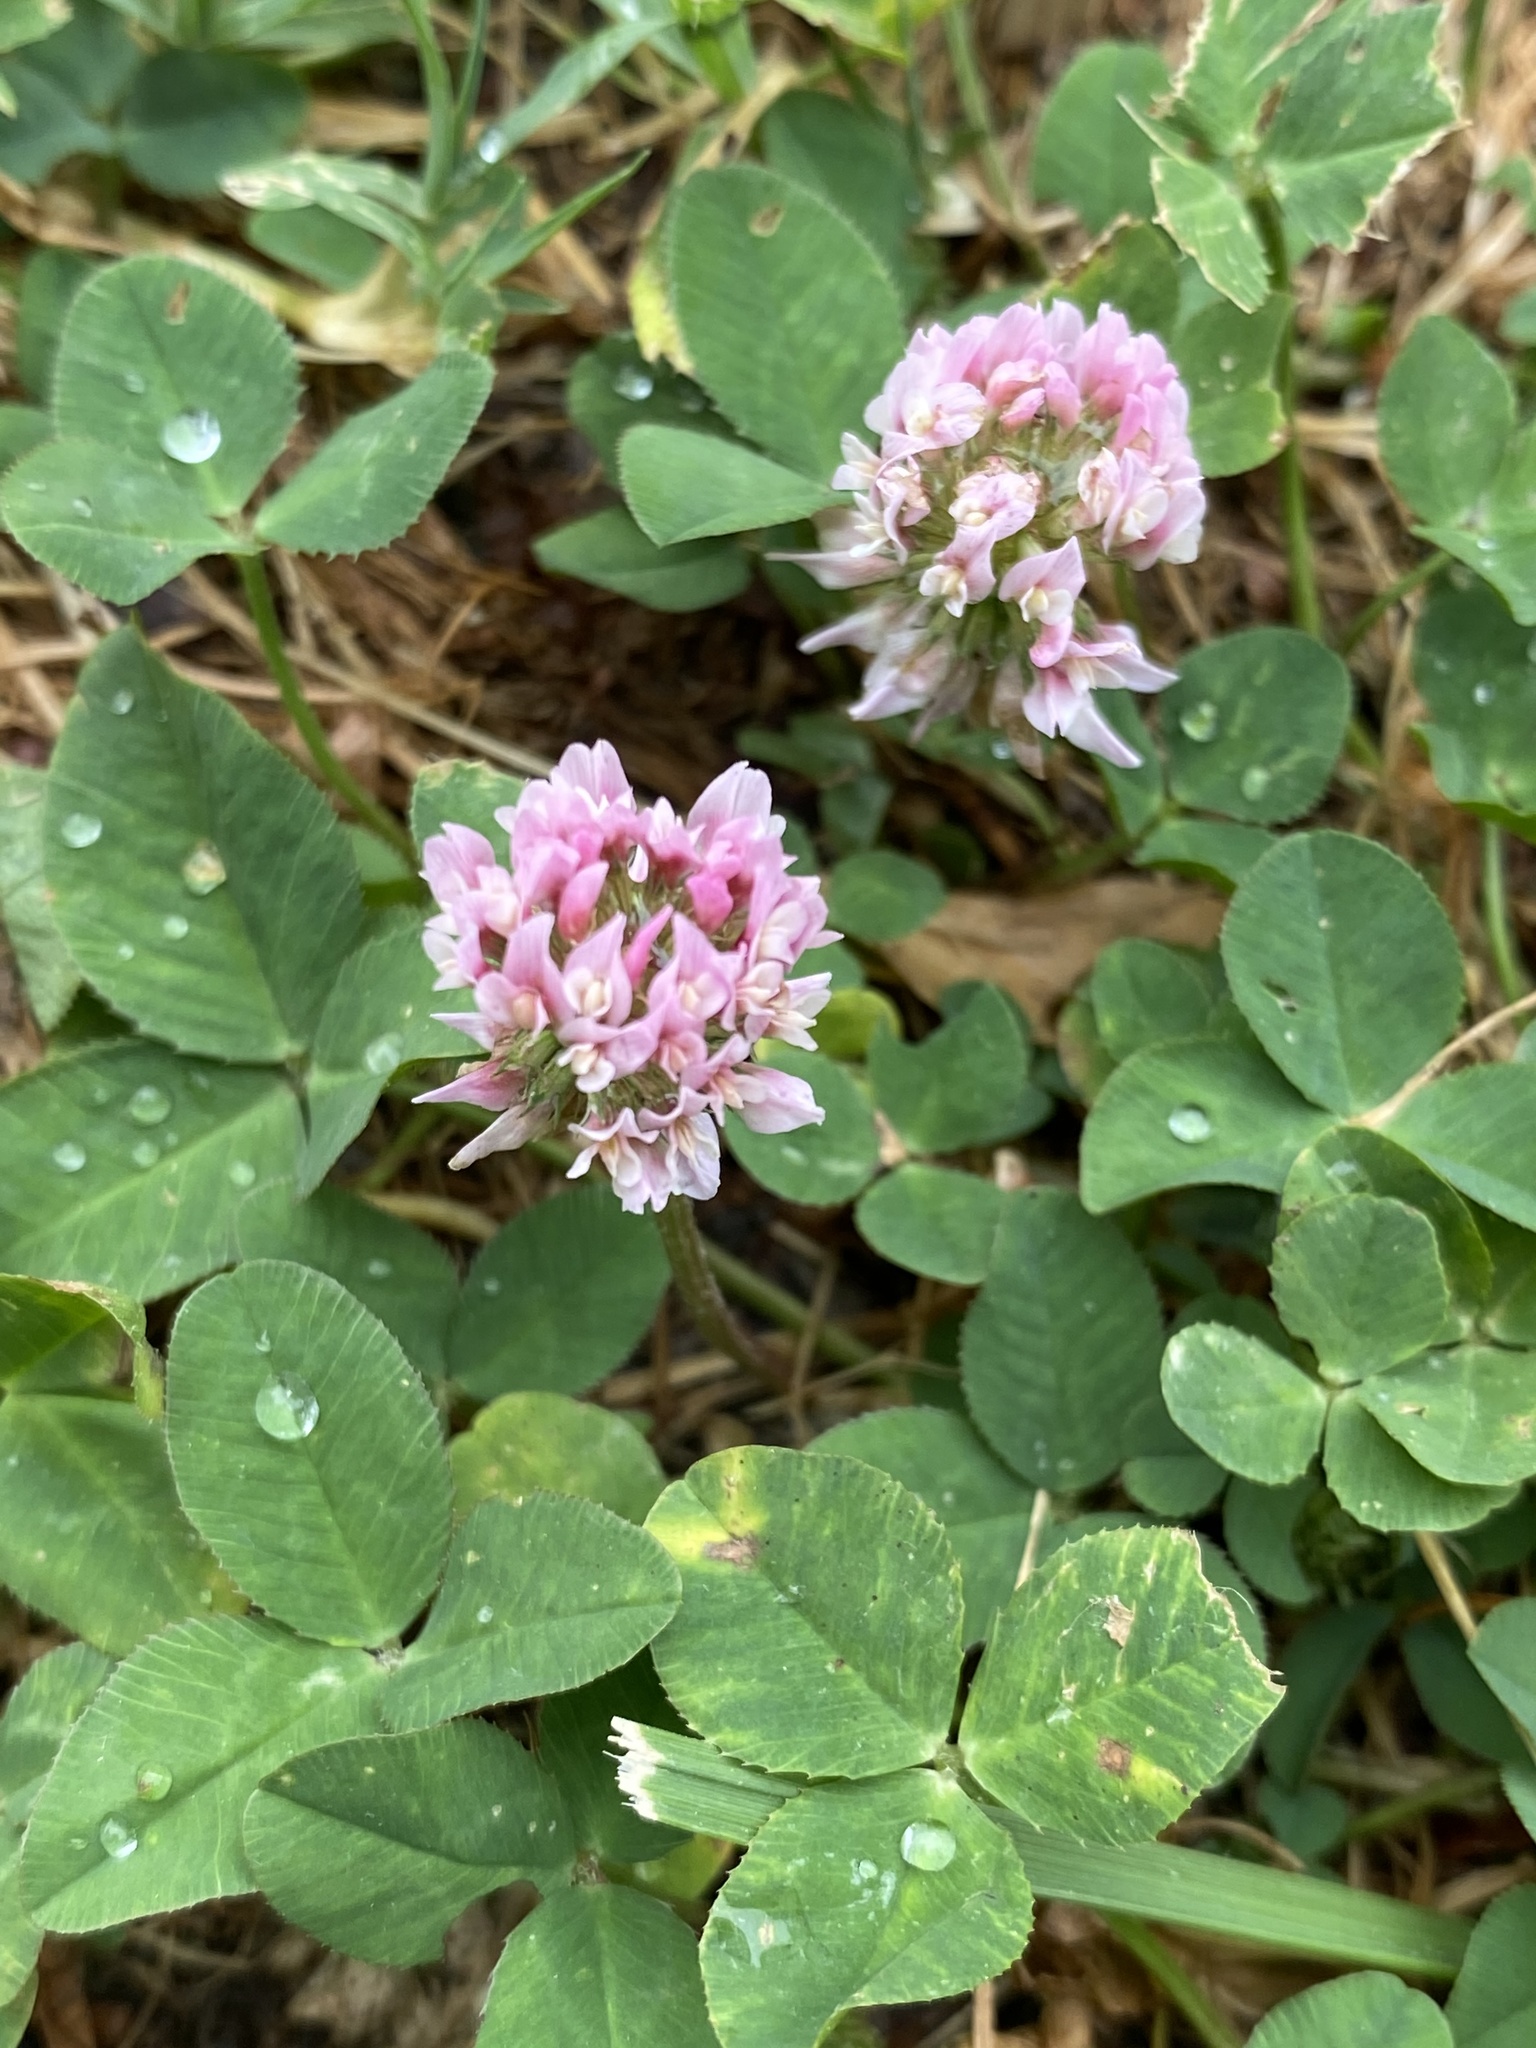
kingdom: Plantae
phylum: Tracheophyta
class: Magnoliopsida
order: Fabales
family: Fabaceae
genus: Trifolium
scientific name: Trifolium hybridum
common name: Alsike clover
